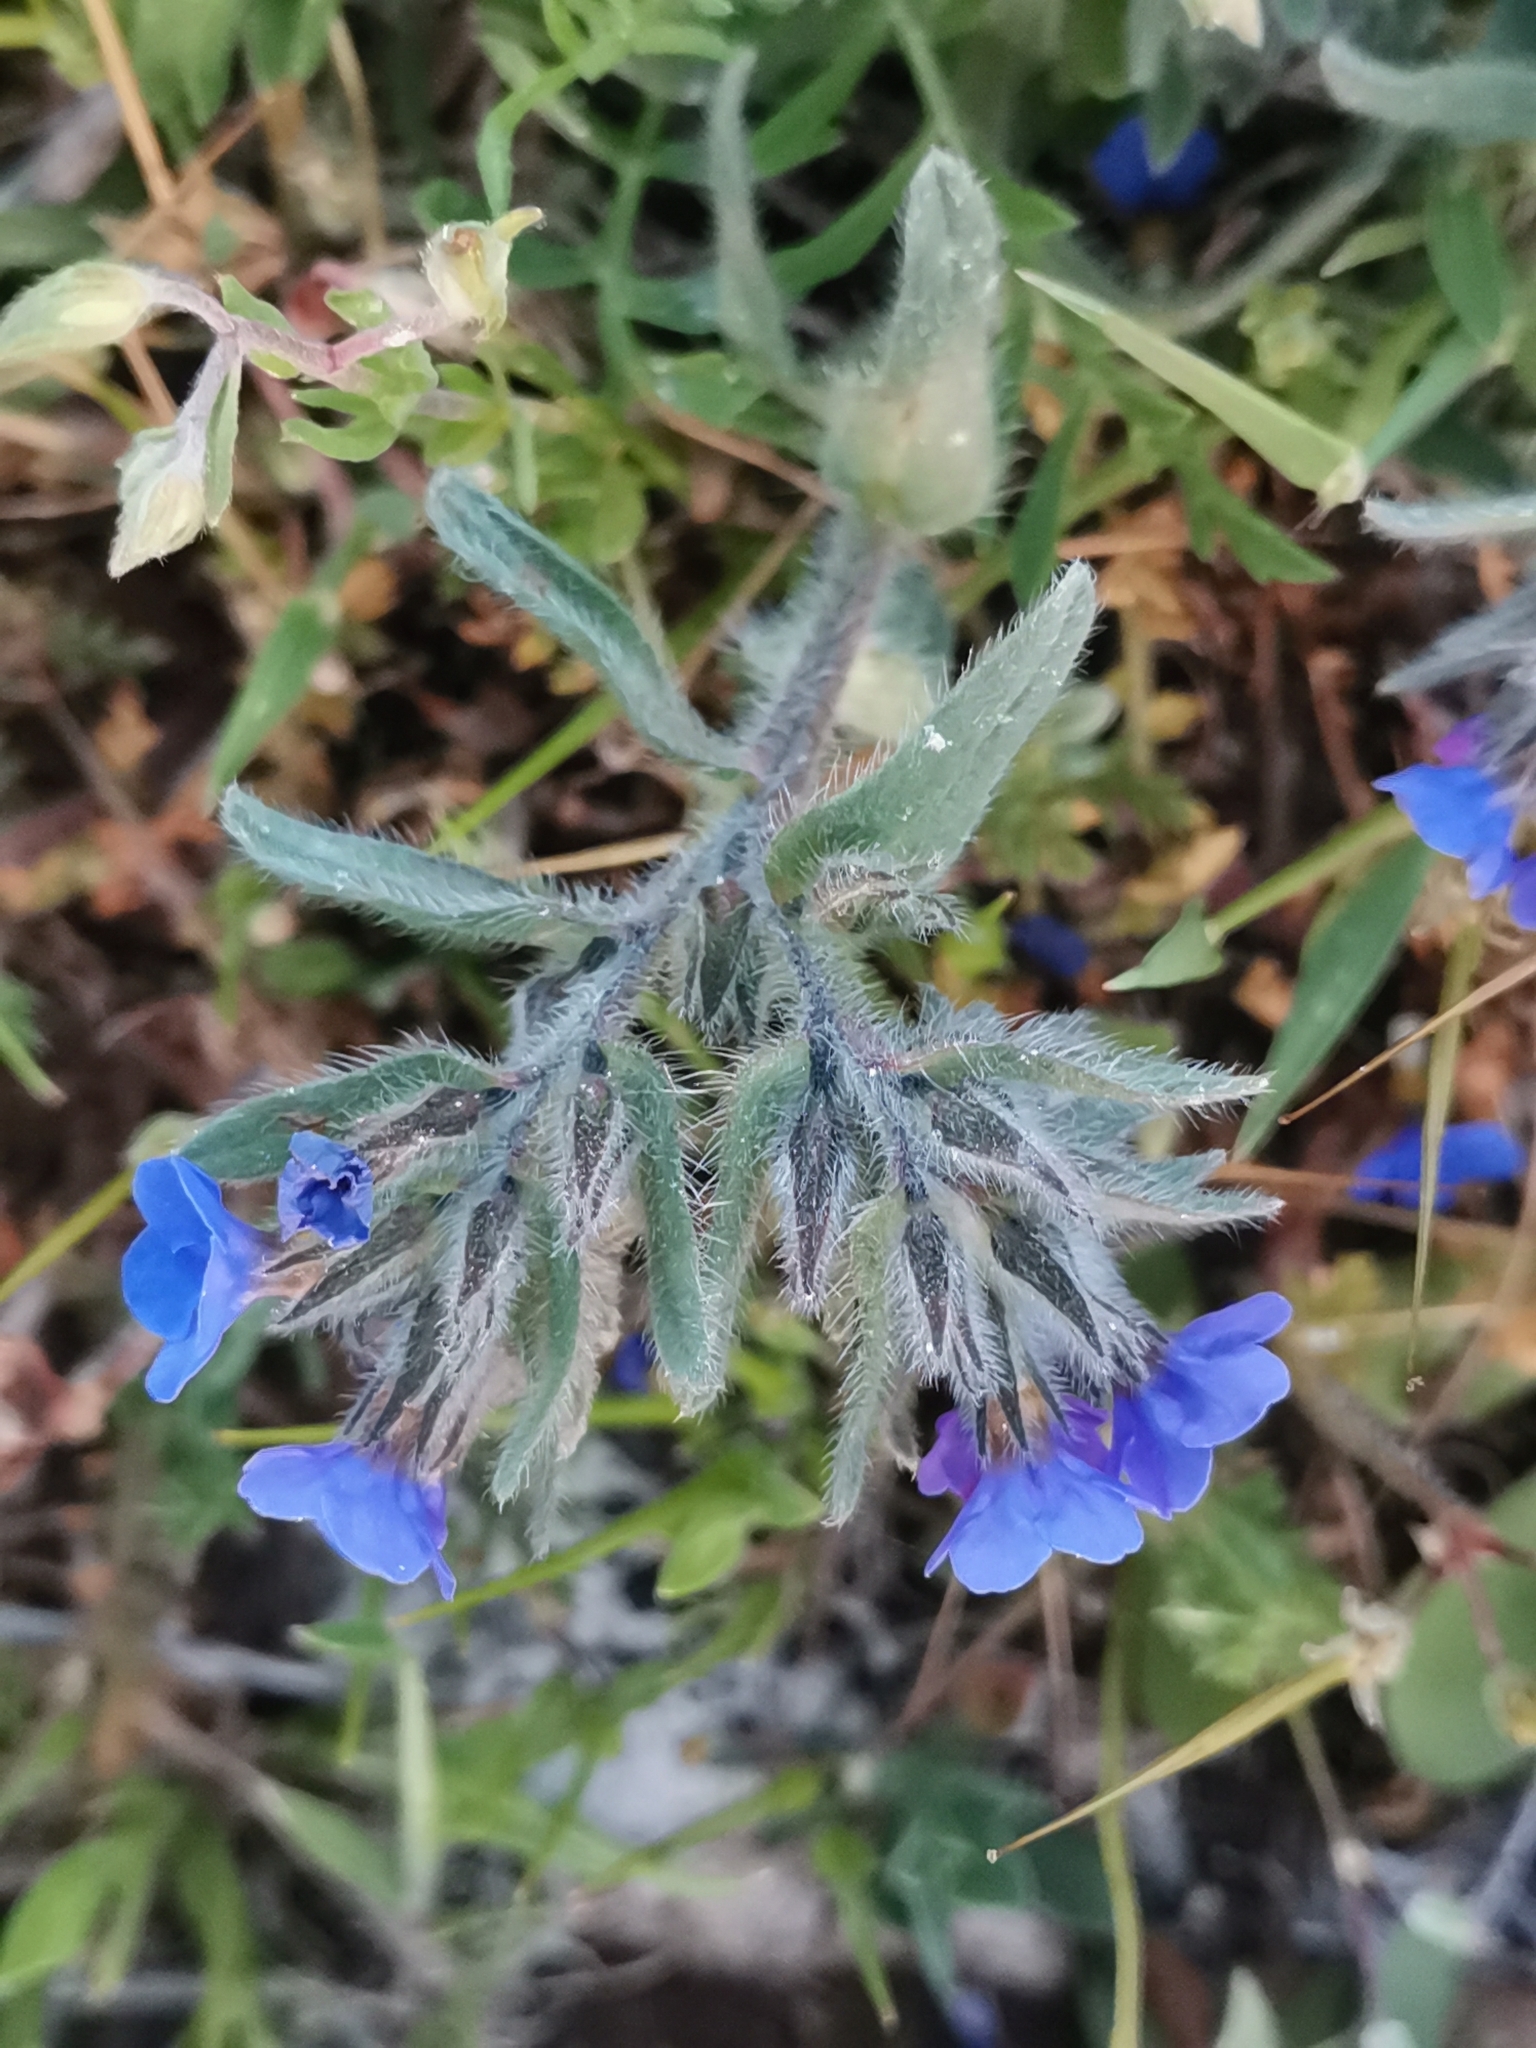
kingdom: Plantae
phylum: Tracheophyta
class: Magnoliopsida
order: Boraginales
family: Boraginaceae
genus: Alkanna
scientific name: Alkanna tinctoria
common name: Dyer's-alkanet
